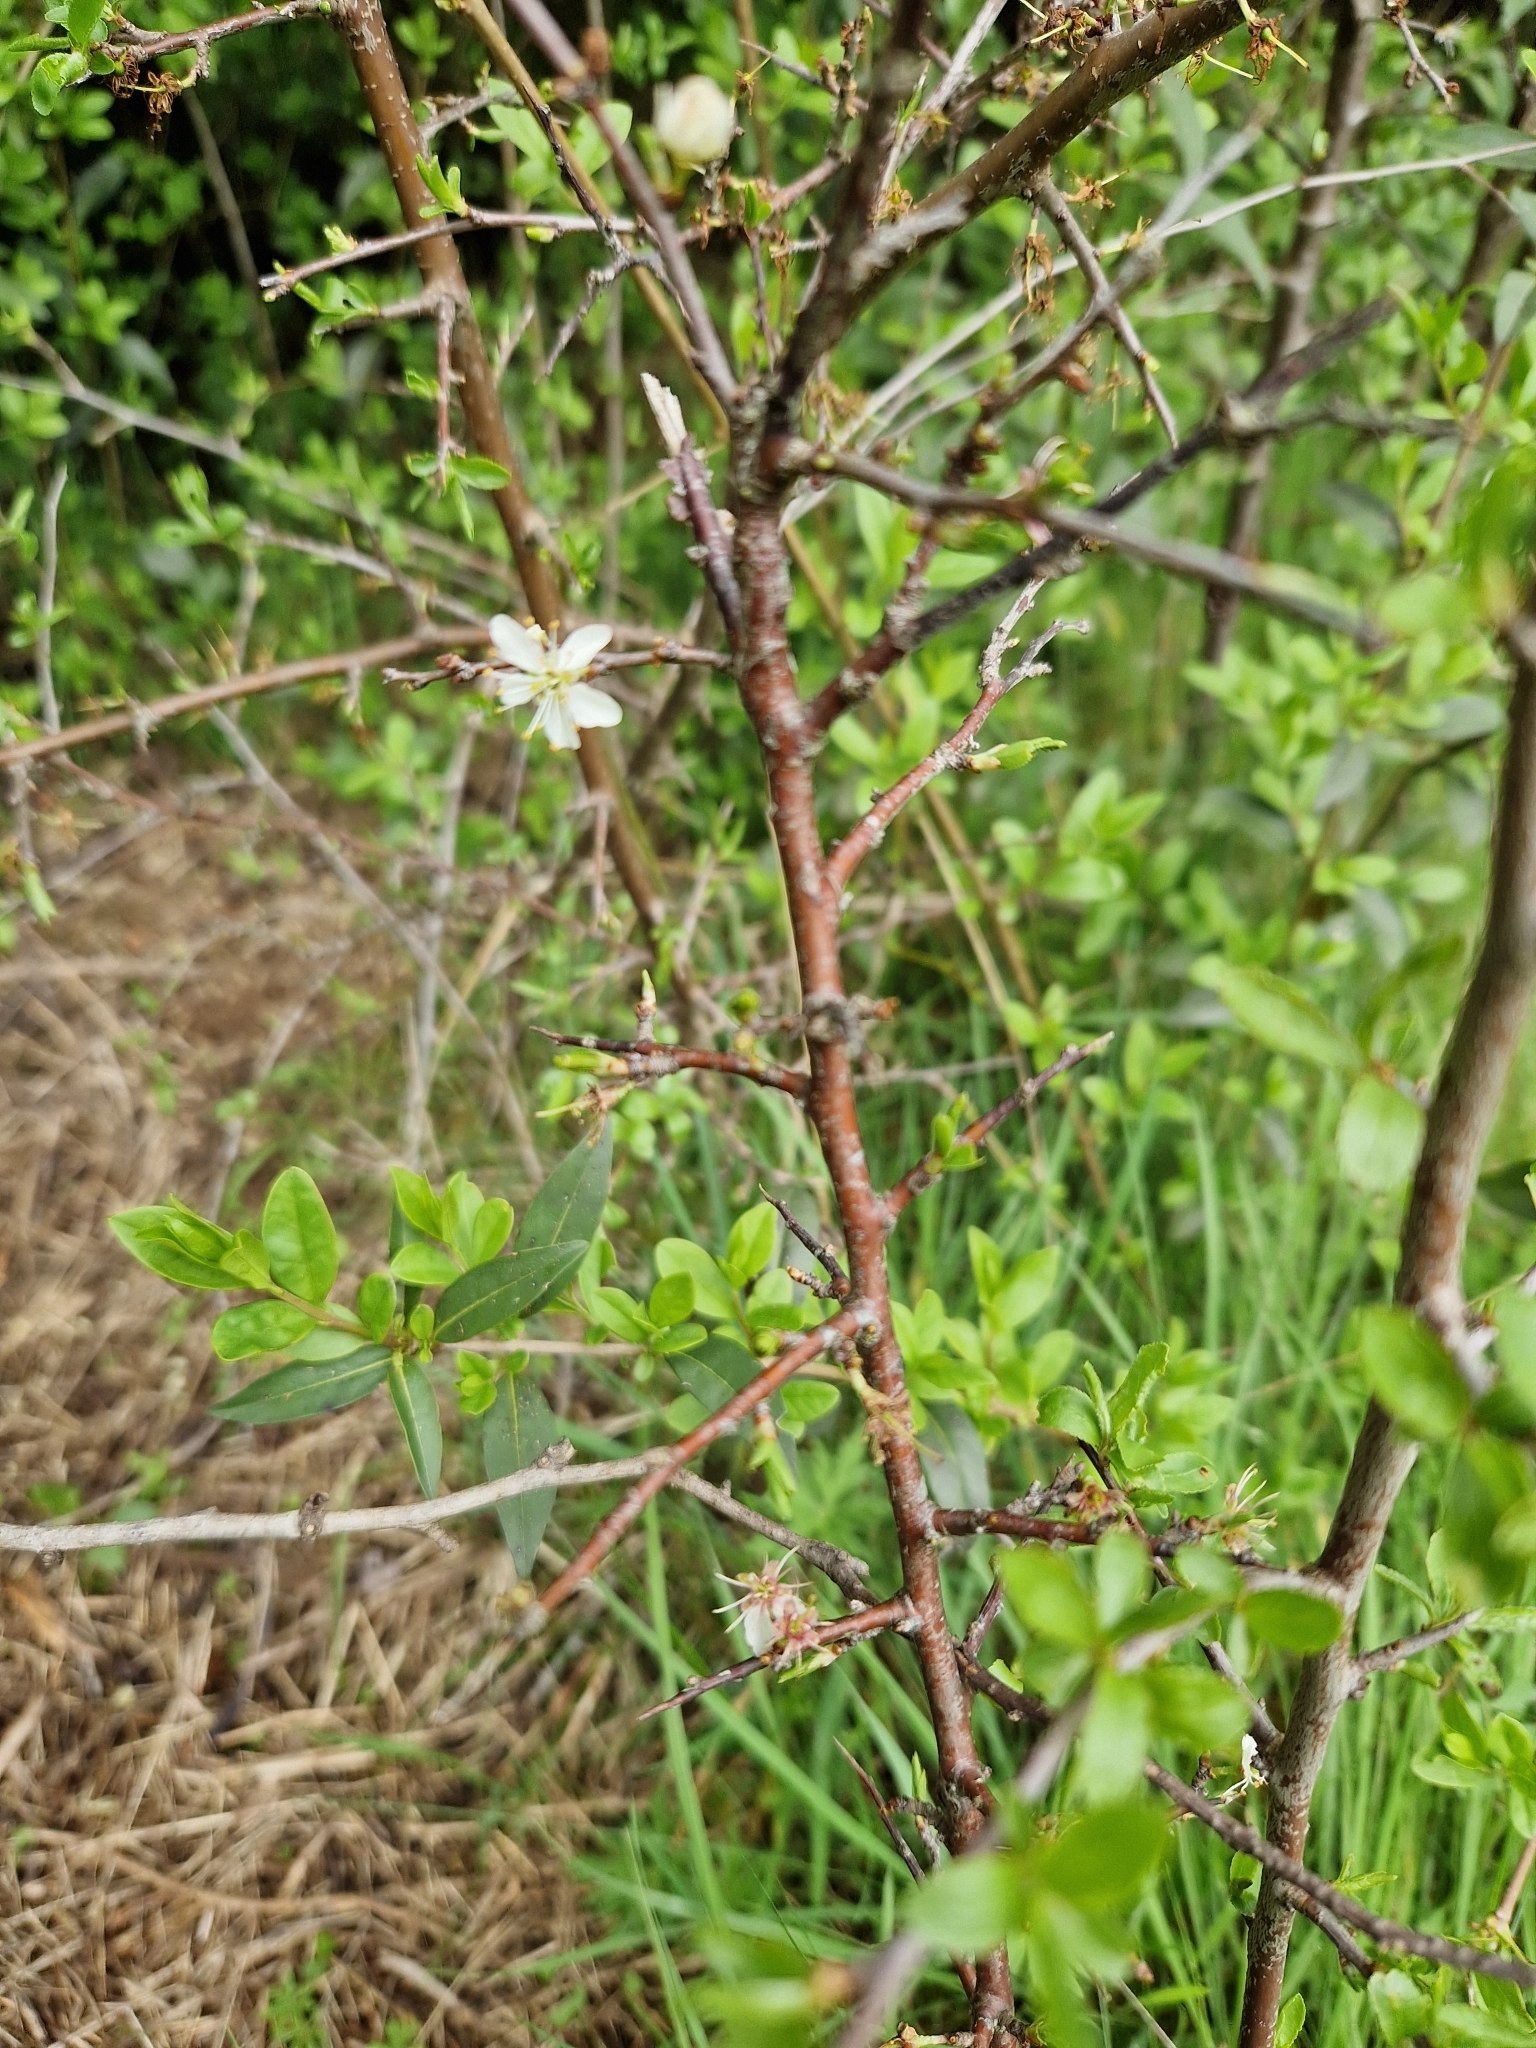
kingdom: Plantae
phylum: Tracheophyta
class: Magnoliopsida
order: Rosales
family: Rosaceae
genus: Prunus
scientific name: Prunus spinosa
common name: Blackthorn
